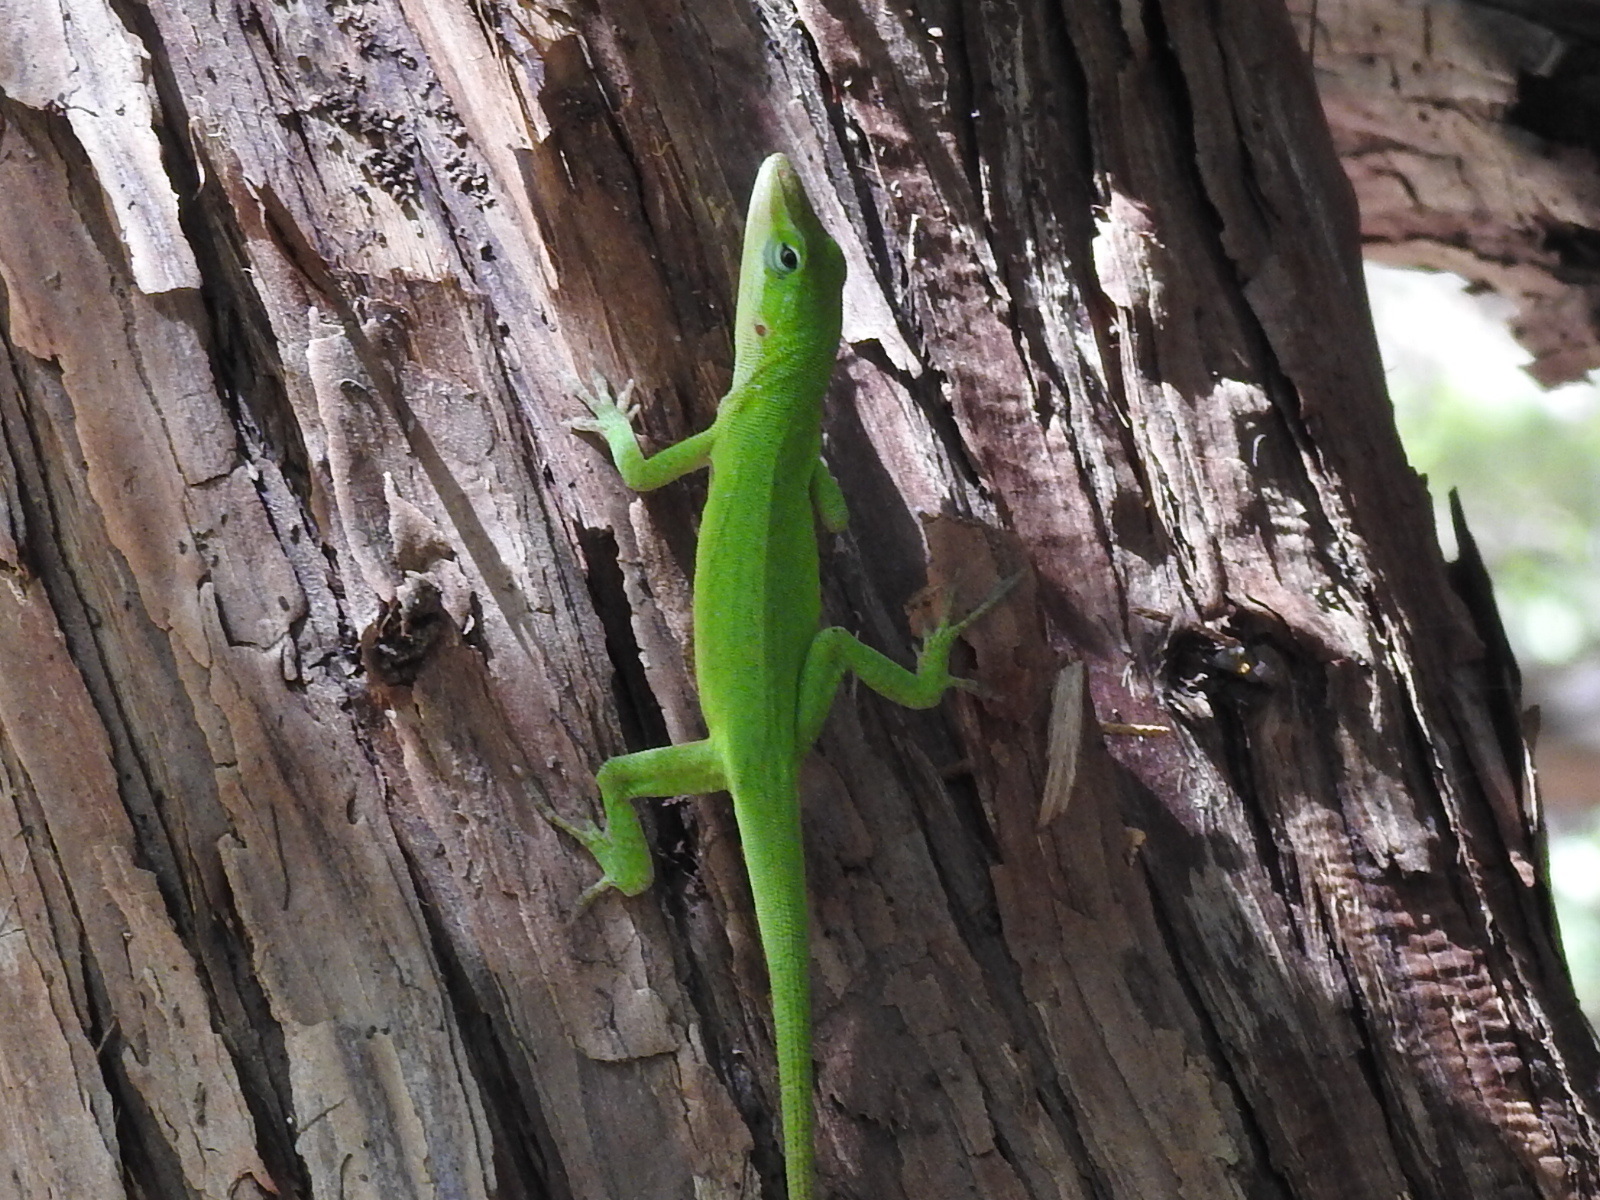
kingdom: Animalia
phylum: Chordata
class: Squamata
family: Dactyloidae
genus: Anolis
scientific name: Anolis carolinensis
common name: Green anole
